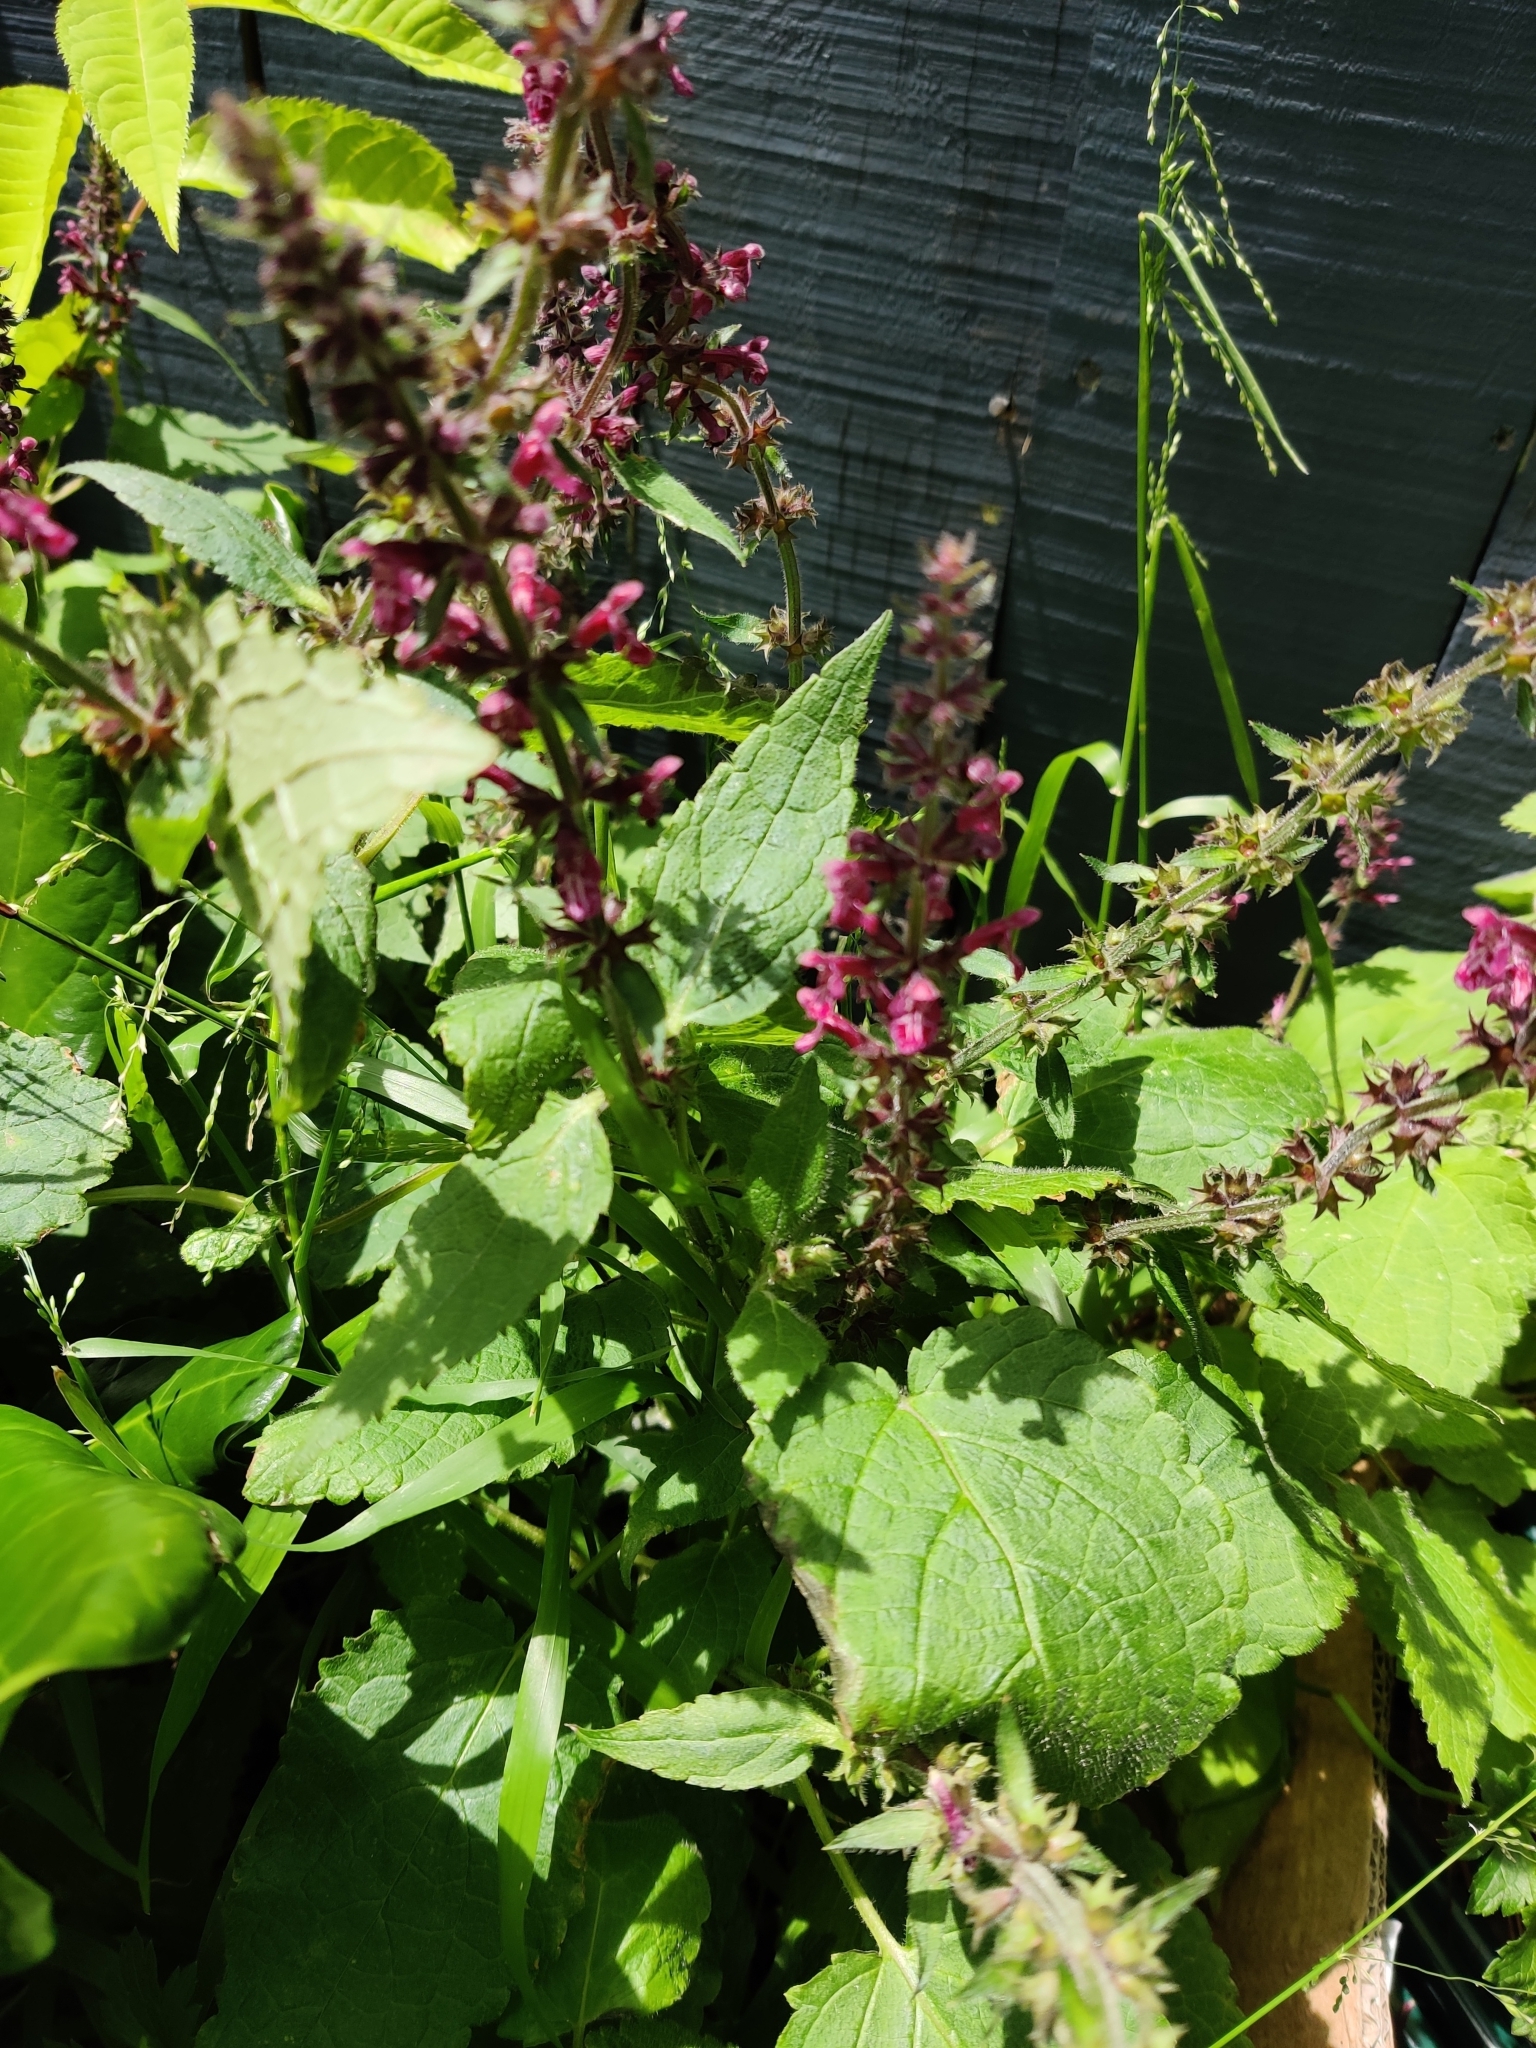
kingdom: Plantae
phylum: Tracheophyta
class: Magnoliopsida
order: Lamiales
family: Lamiaceae
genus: Stachys
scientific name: Stachys sylvatica
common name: Hedge woundwort
